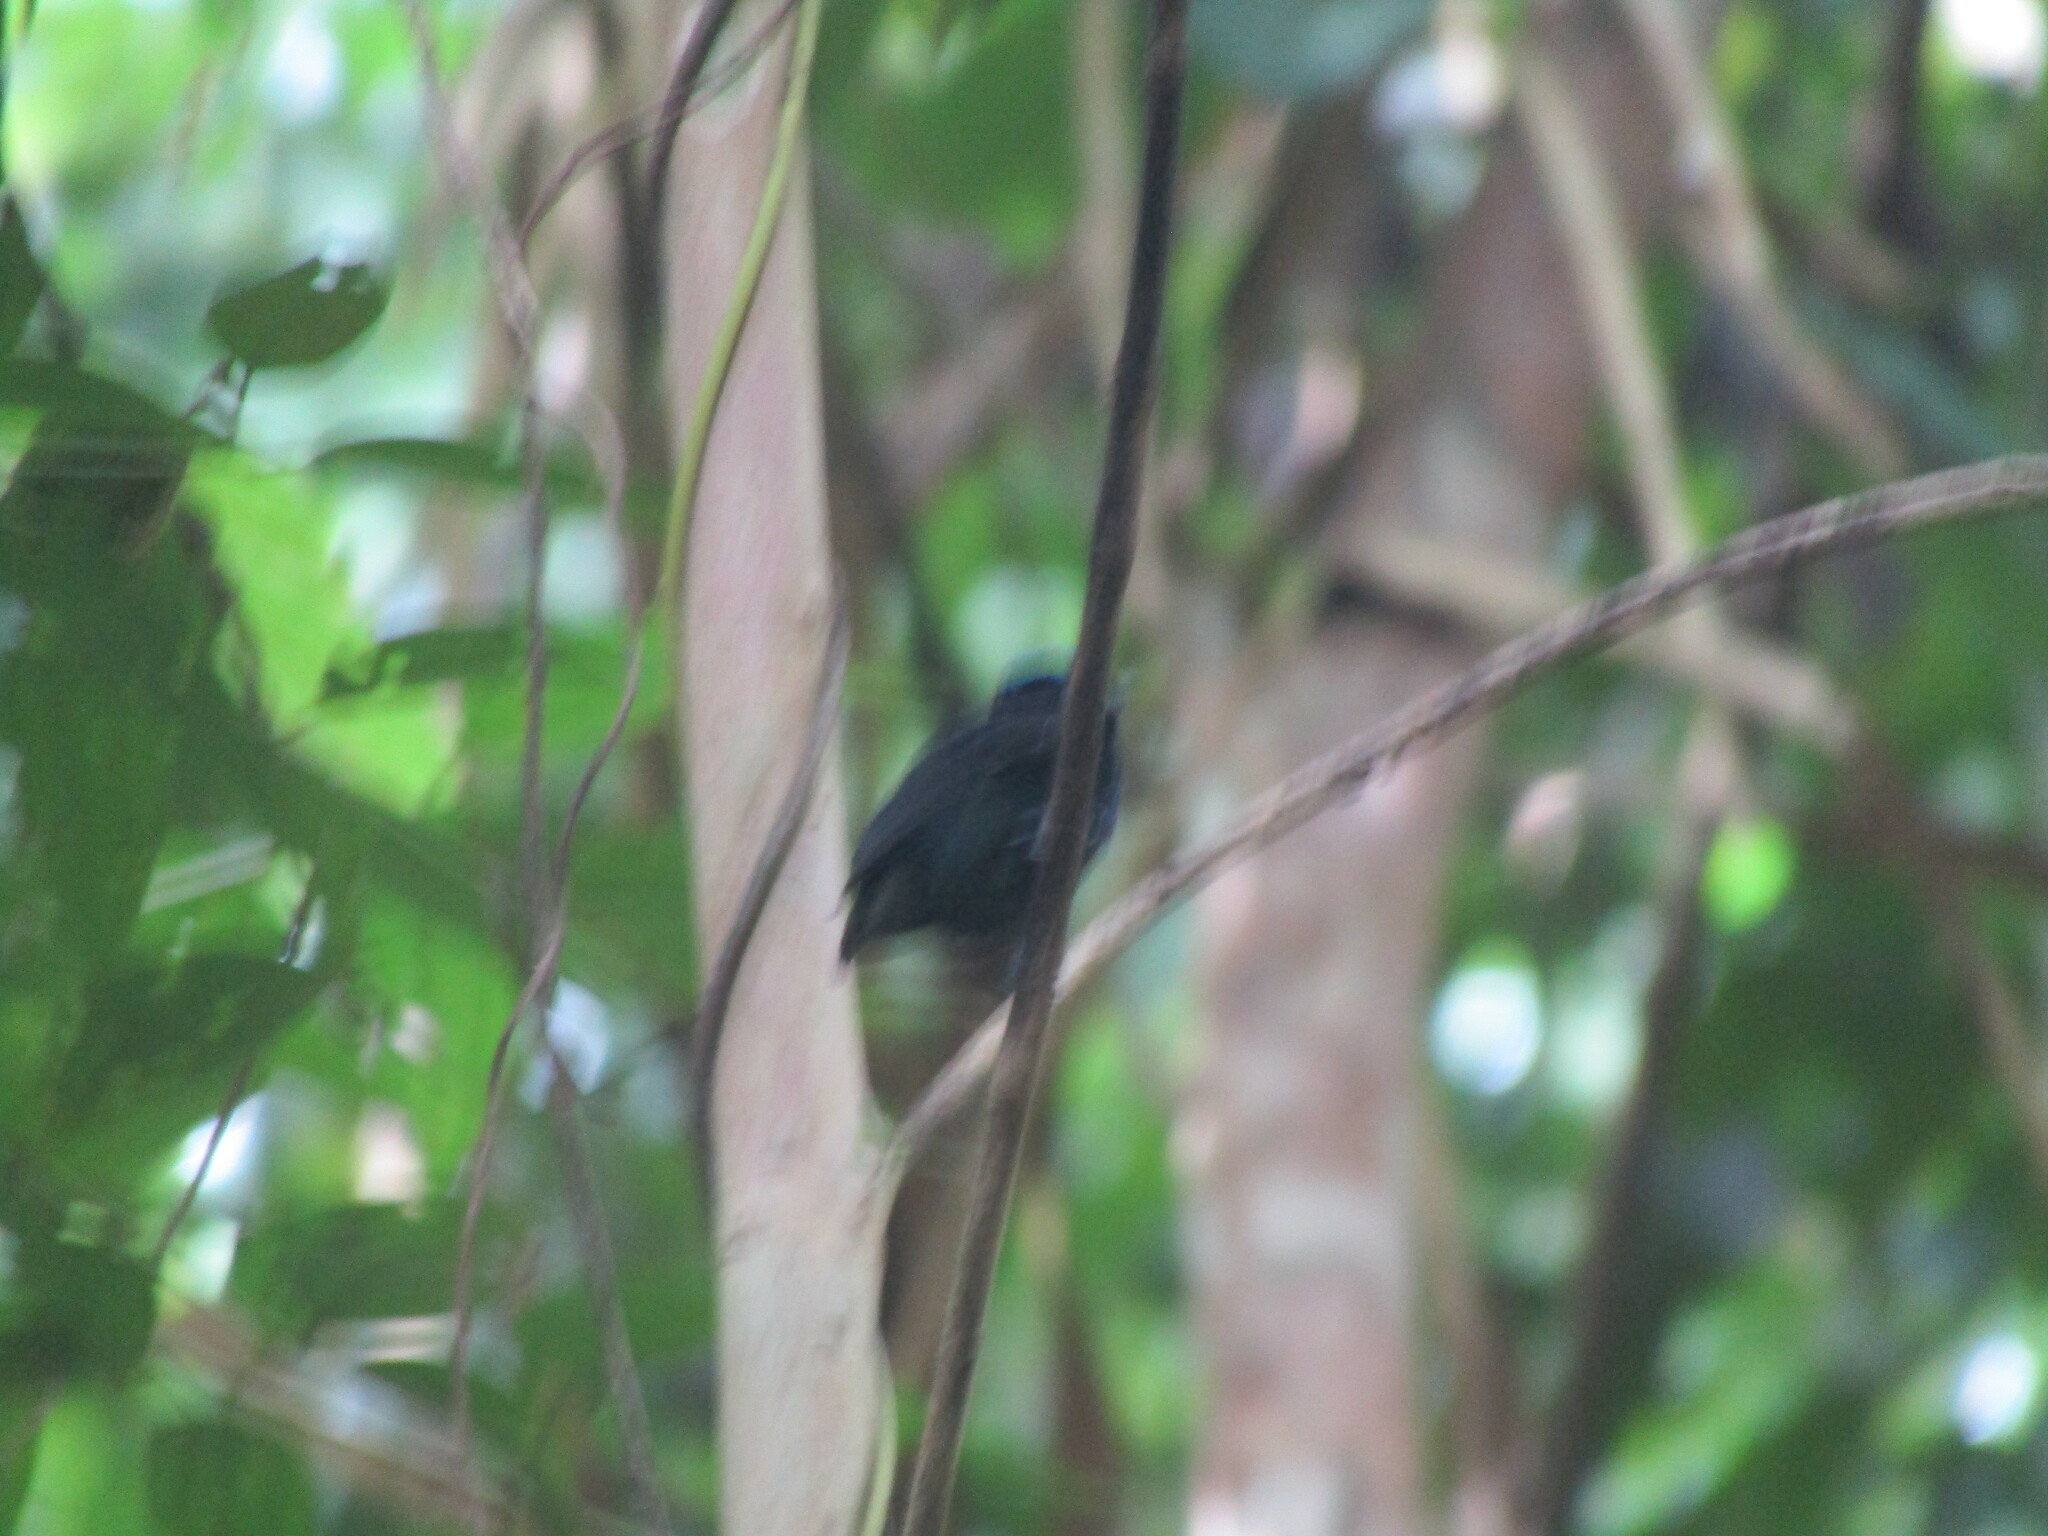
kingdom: Animalia
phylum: Chordata
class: Aves
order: Passeriformes
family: Pipridae
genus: Lepidothrix
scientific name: Lepidothrix coronata
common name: Blue-crowned manakin
